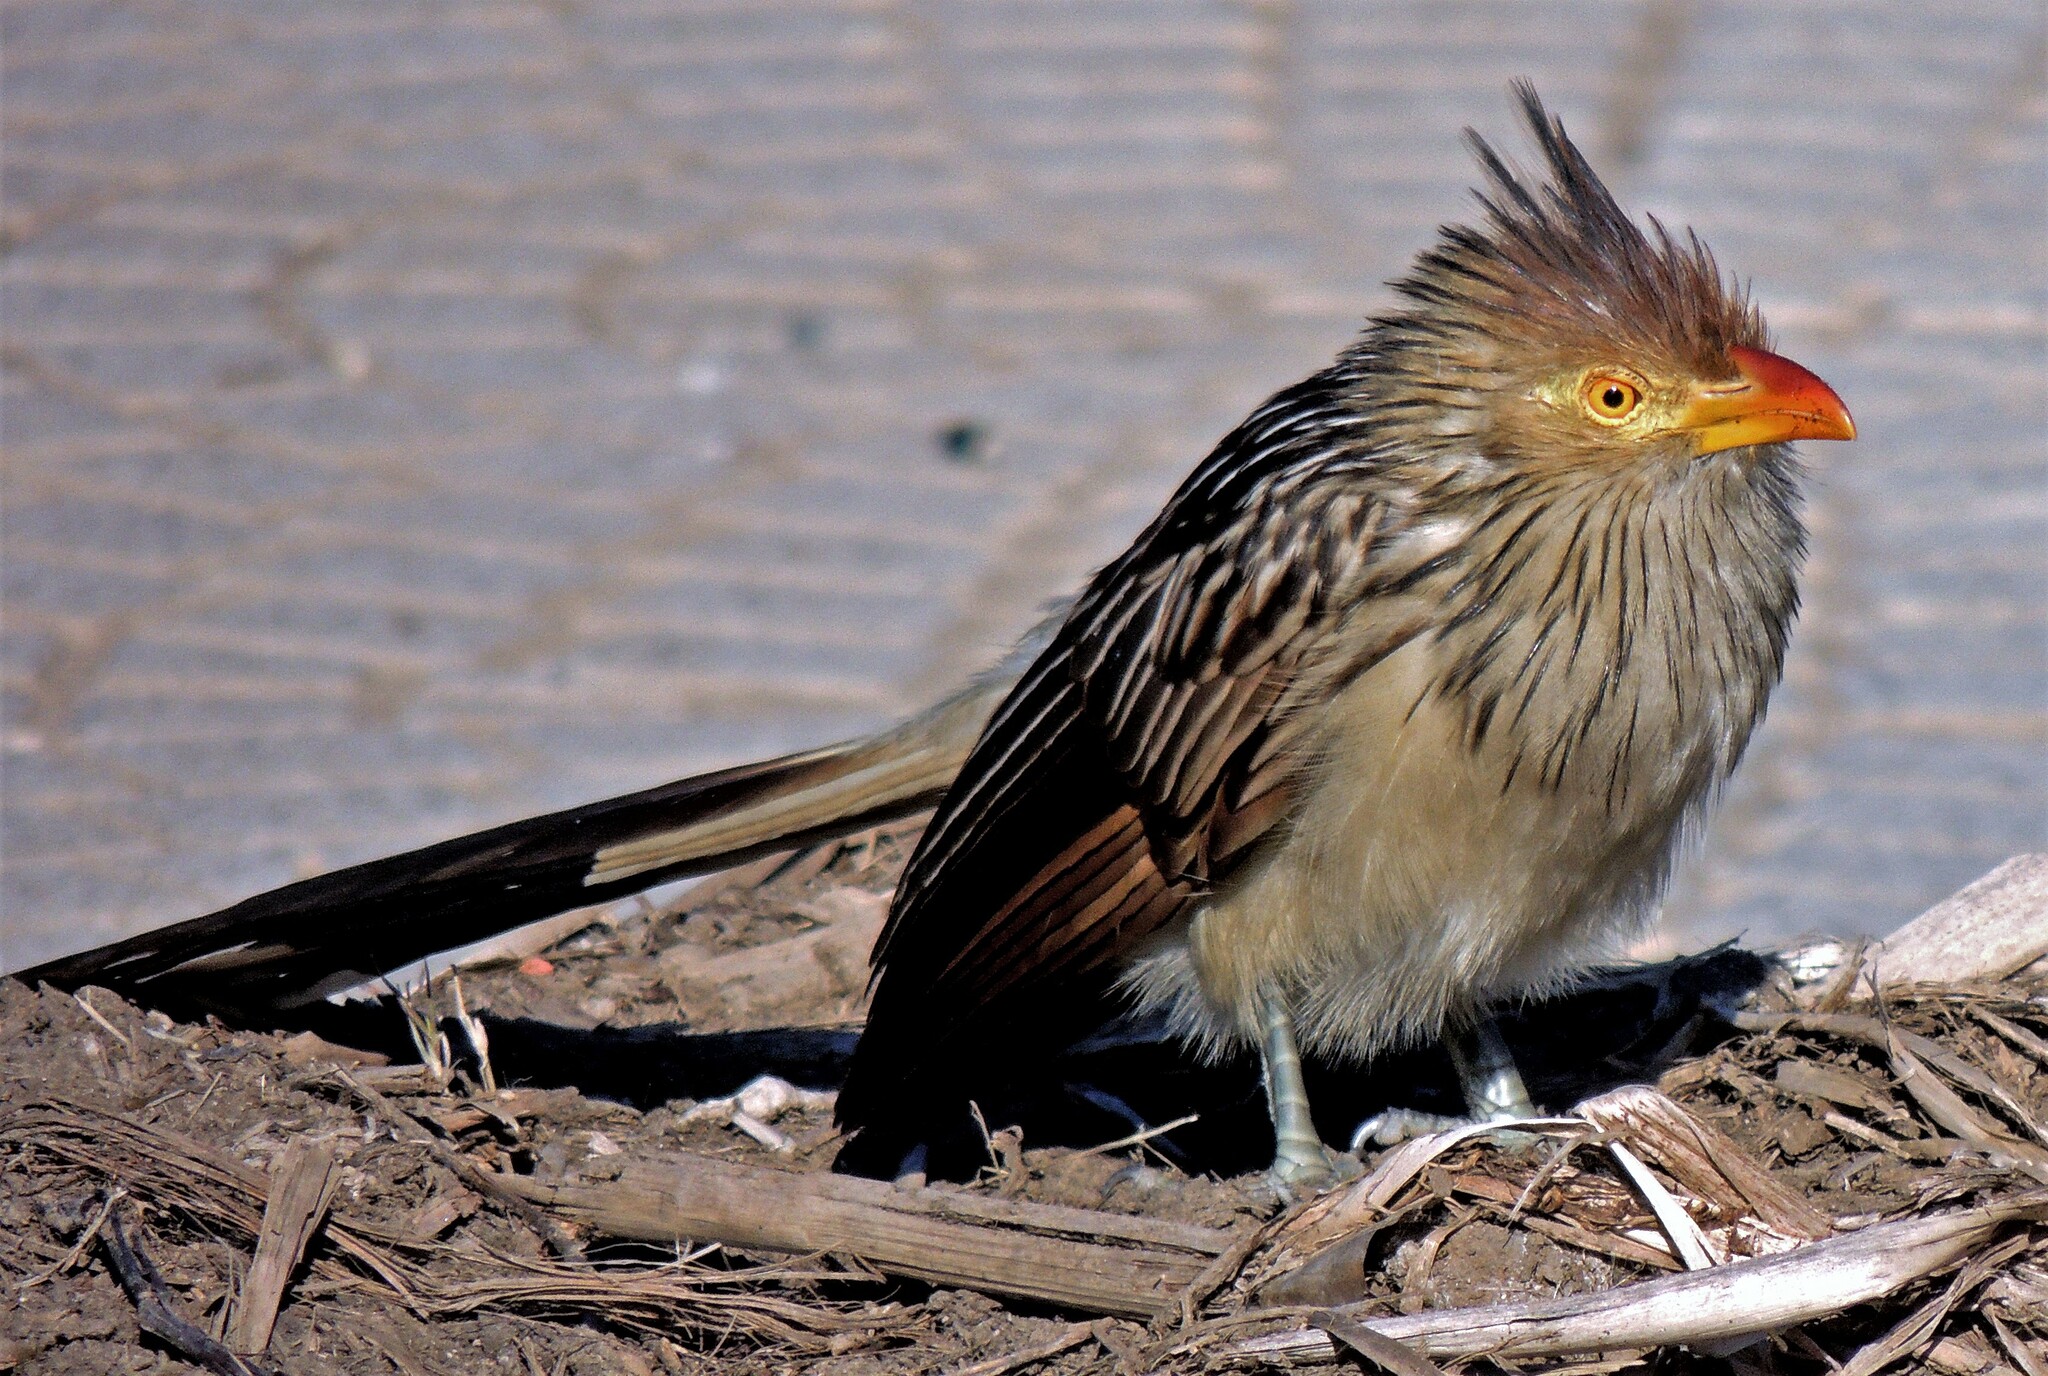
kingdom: Animalia
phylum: Chordata
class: Aves
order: Cuculiformes
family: Cuculidae
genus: Guira
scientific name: Guira guira
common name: Guira cuckoo
